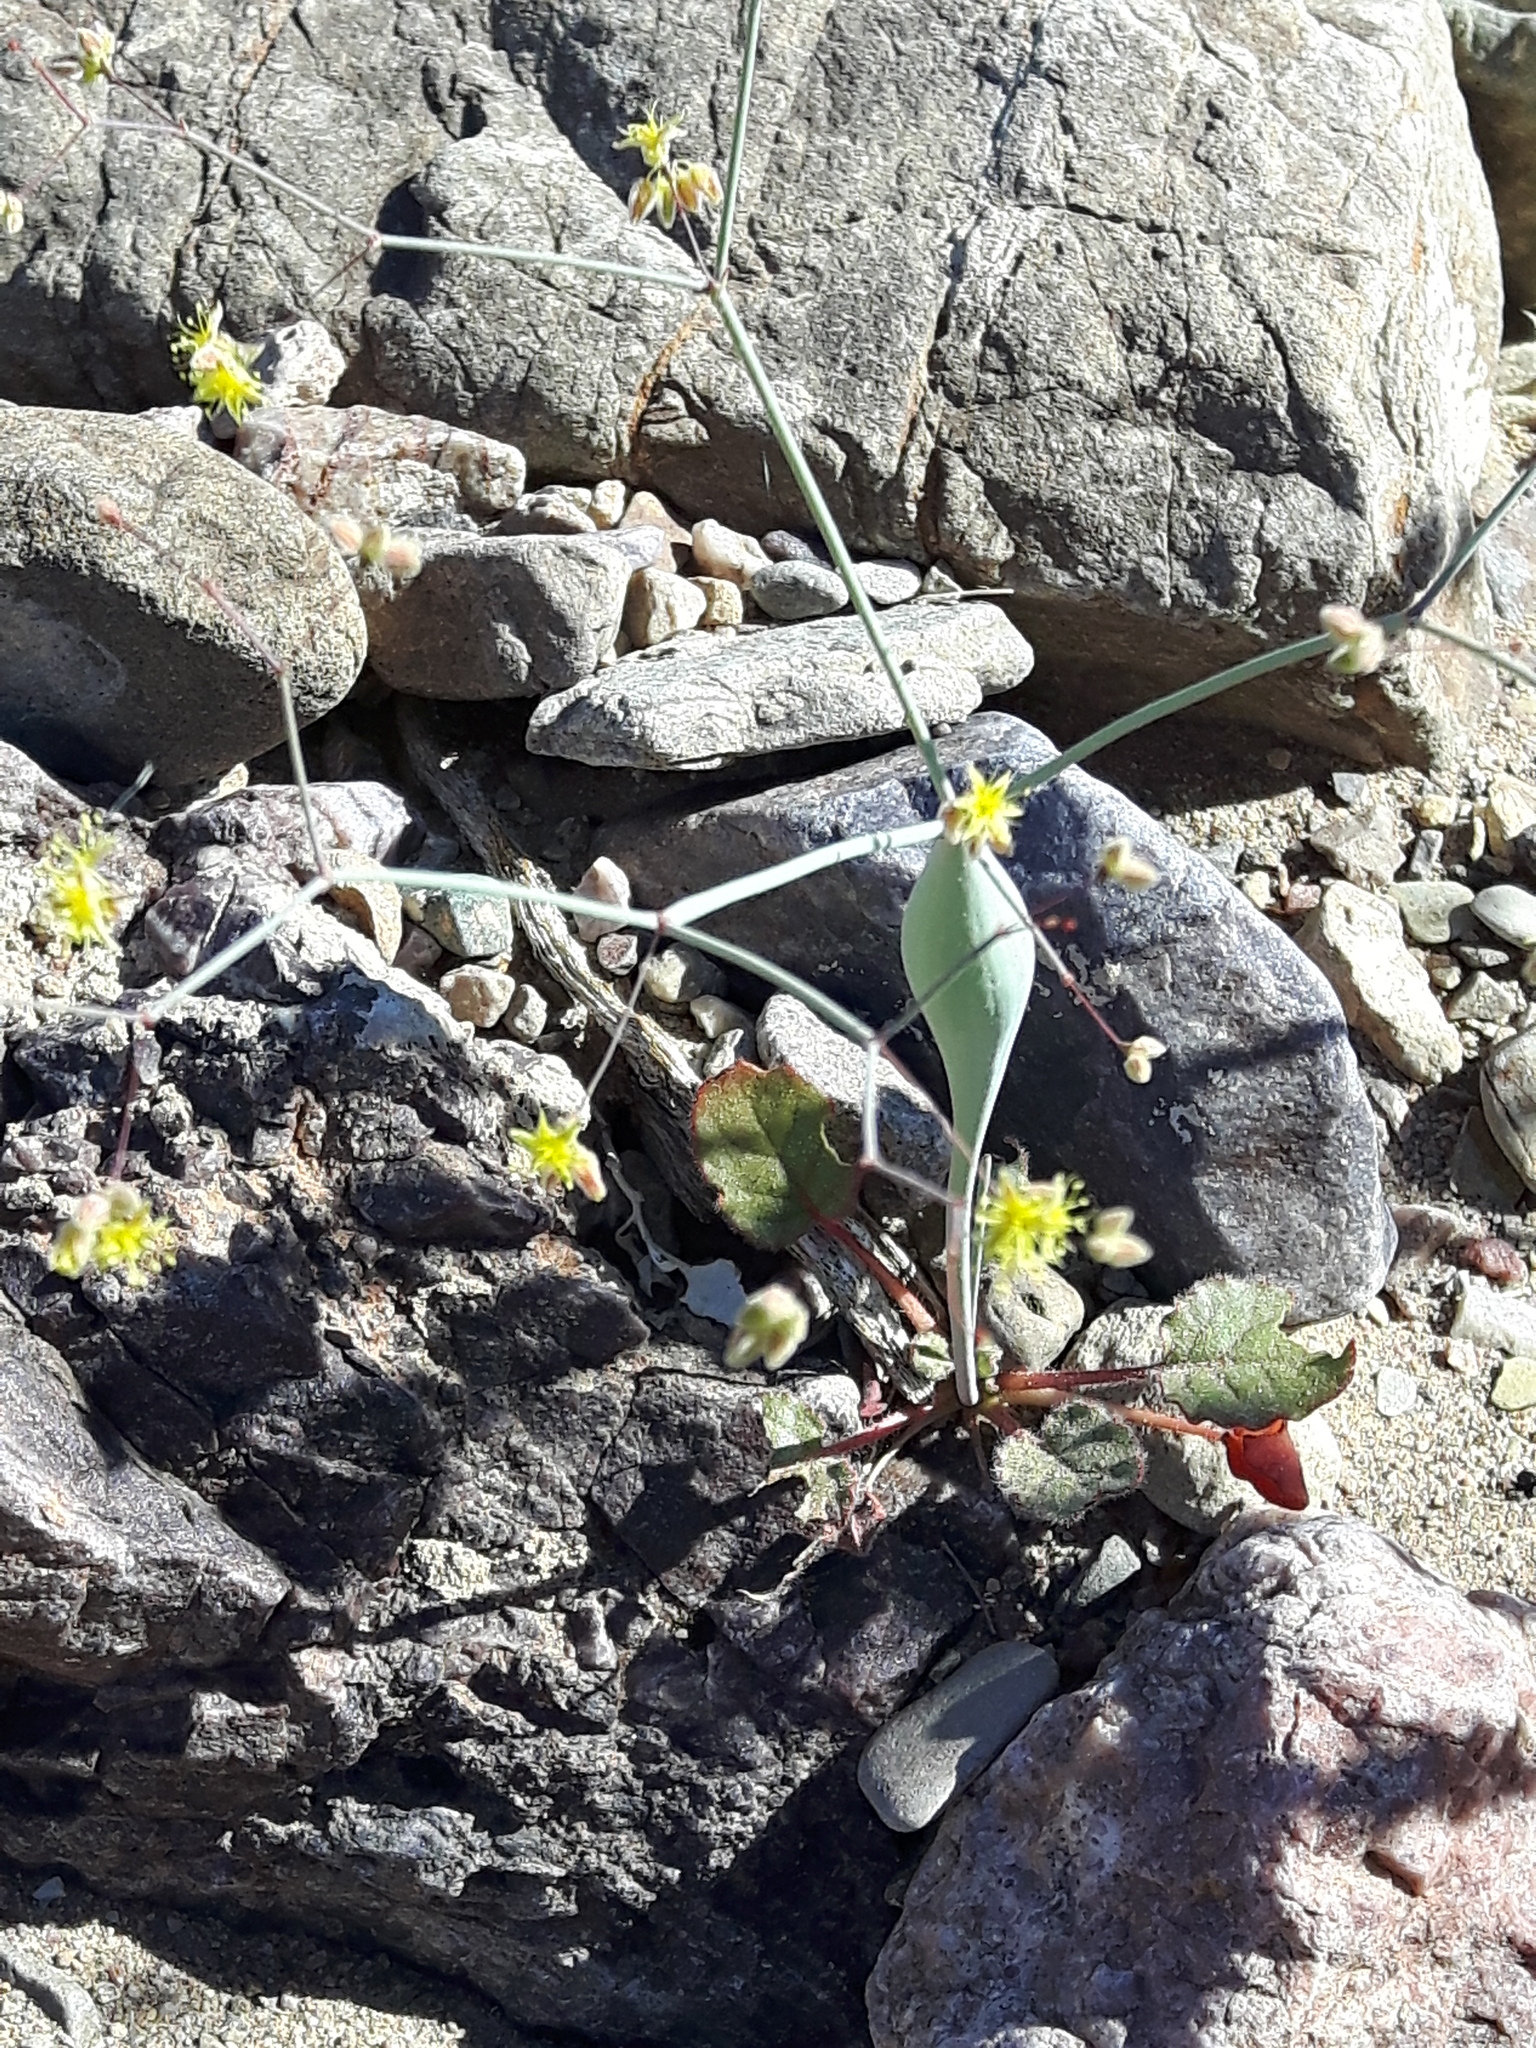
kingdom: Plantae
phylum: Tracheophyta
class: Magnoliopsida
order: Caryophyllales
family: Polygonaceae
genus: Eriogonum
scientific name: Eriogonum inflatum
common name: Desert trumpet
